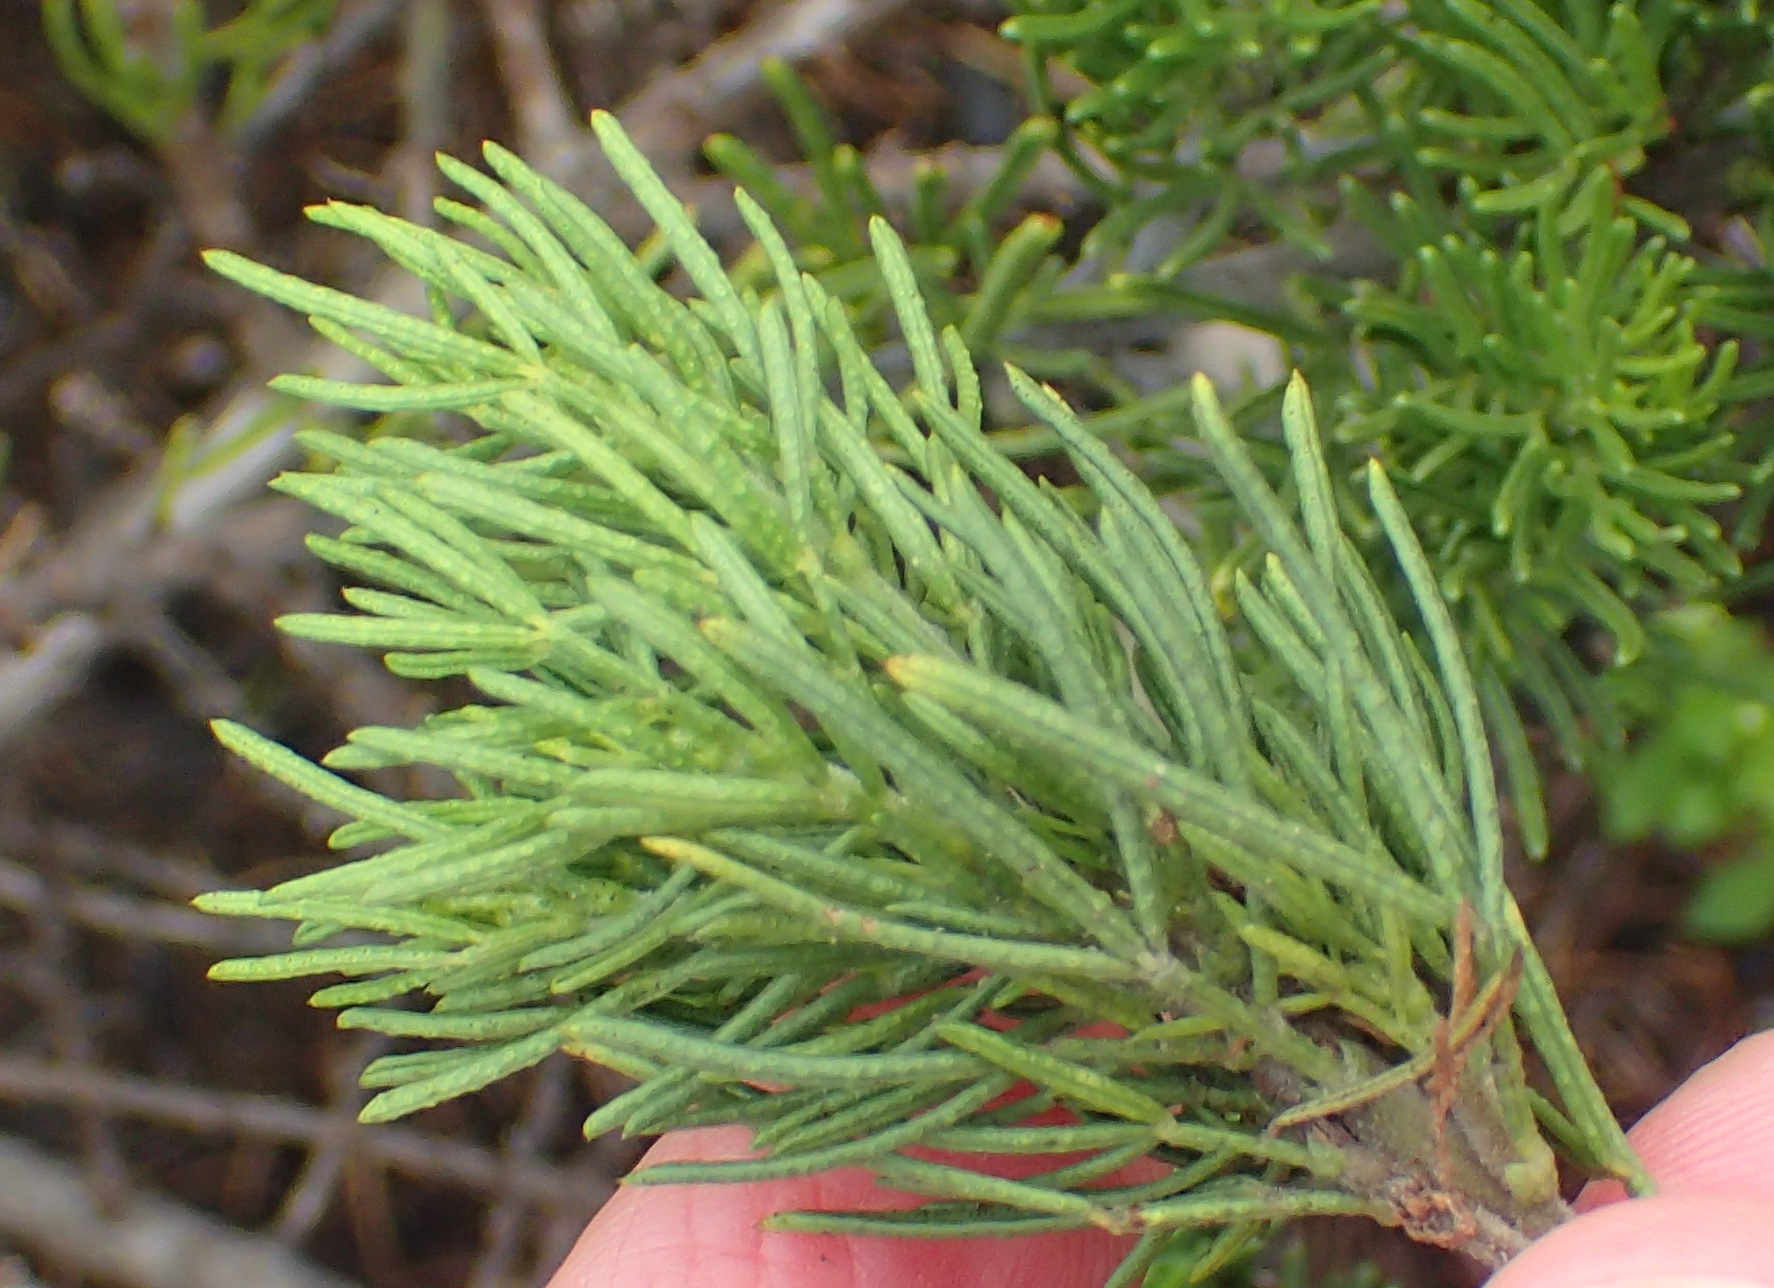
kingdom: Plantae
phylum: Tracheophyta
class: Magnoliopsida
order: Fabales
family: Fabaceae
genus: Psoralea
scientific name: Psoralea vanberkelae
